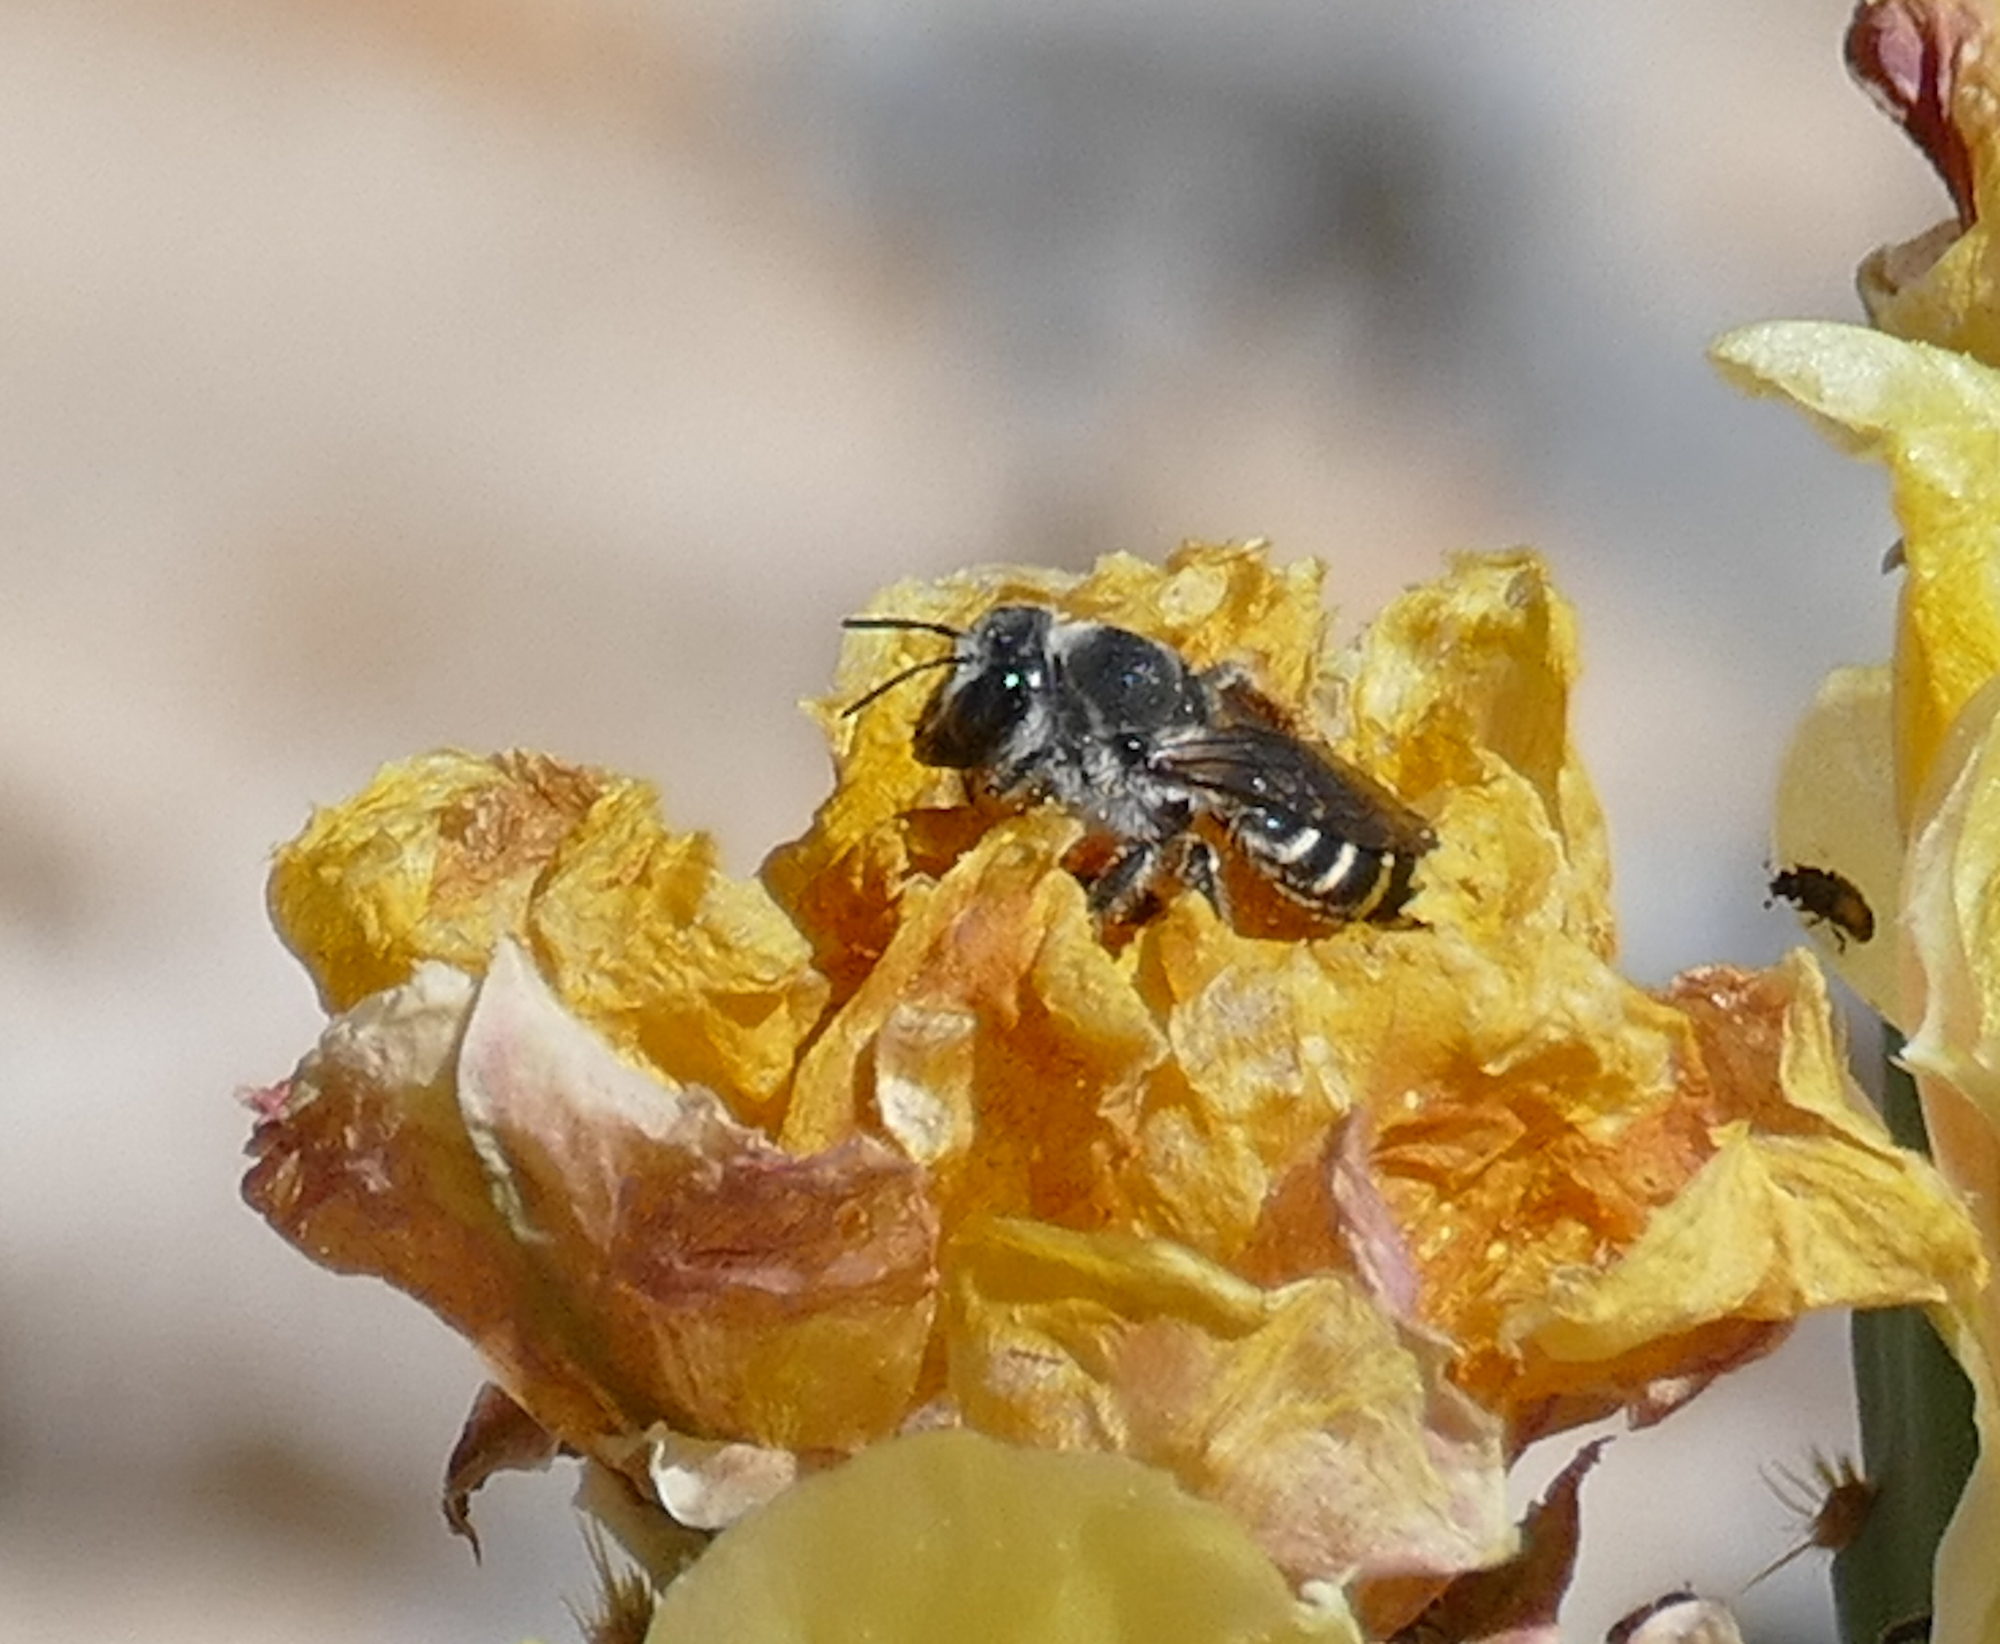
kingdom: Animalia
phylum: Arthropoda
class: Insecta
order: Hymenoptera
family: Megachilidae
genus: Lithurgopsis
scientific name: Lithurgopsis apicalis
